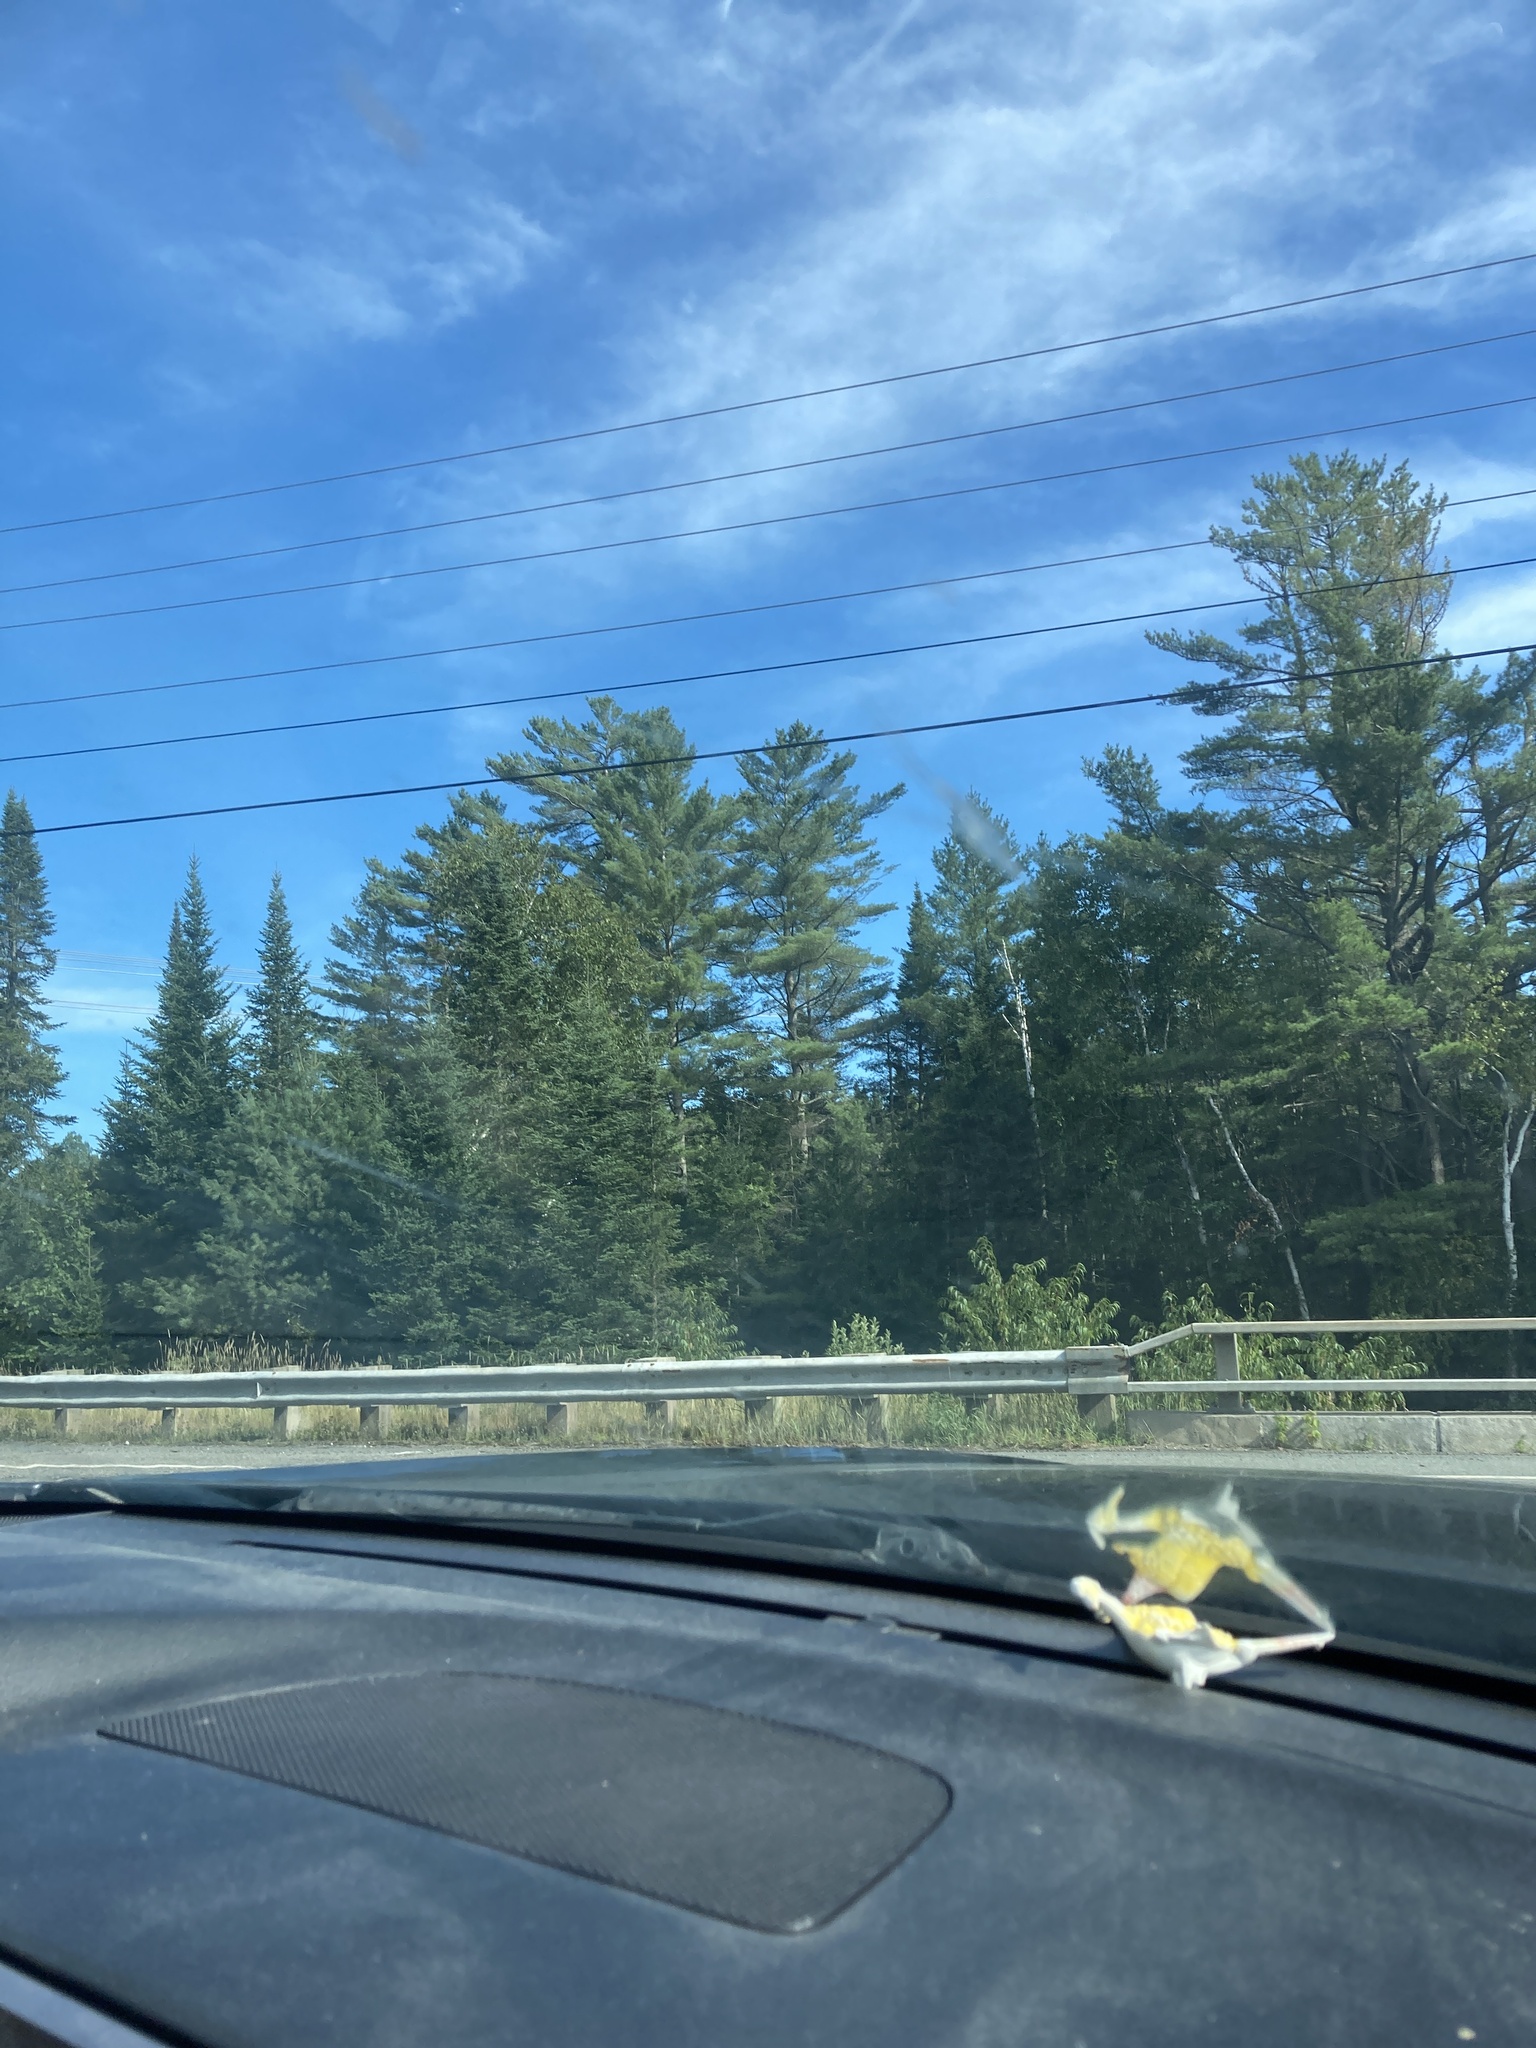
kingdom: Plantae
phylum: Tracheophyta
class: Pinopsida
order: Pinales
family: Pinaceae
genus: Pinus
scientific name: Pinus strobus
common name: Weymouth pine
